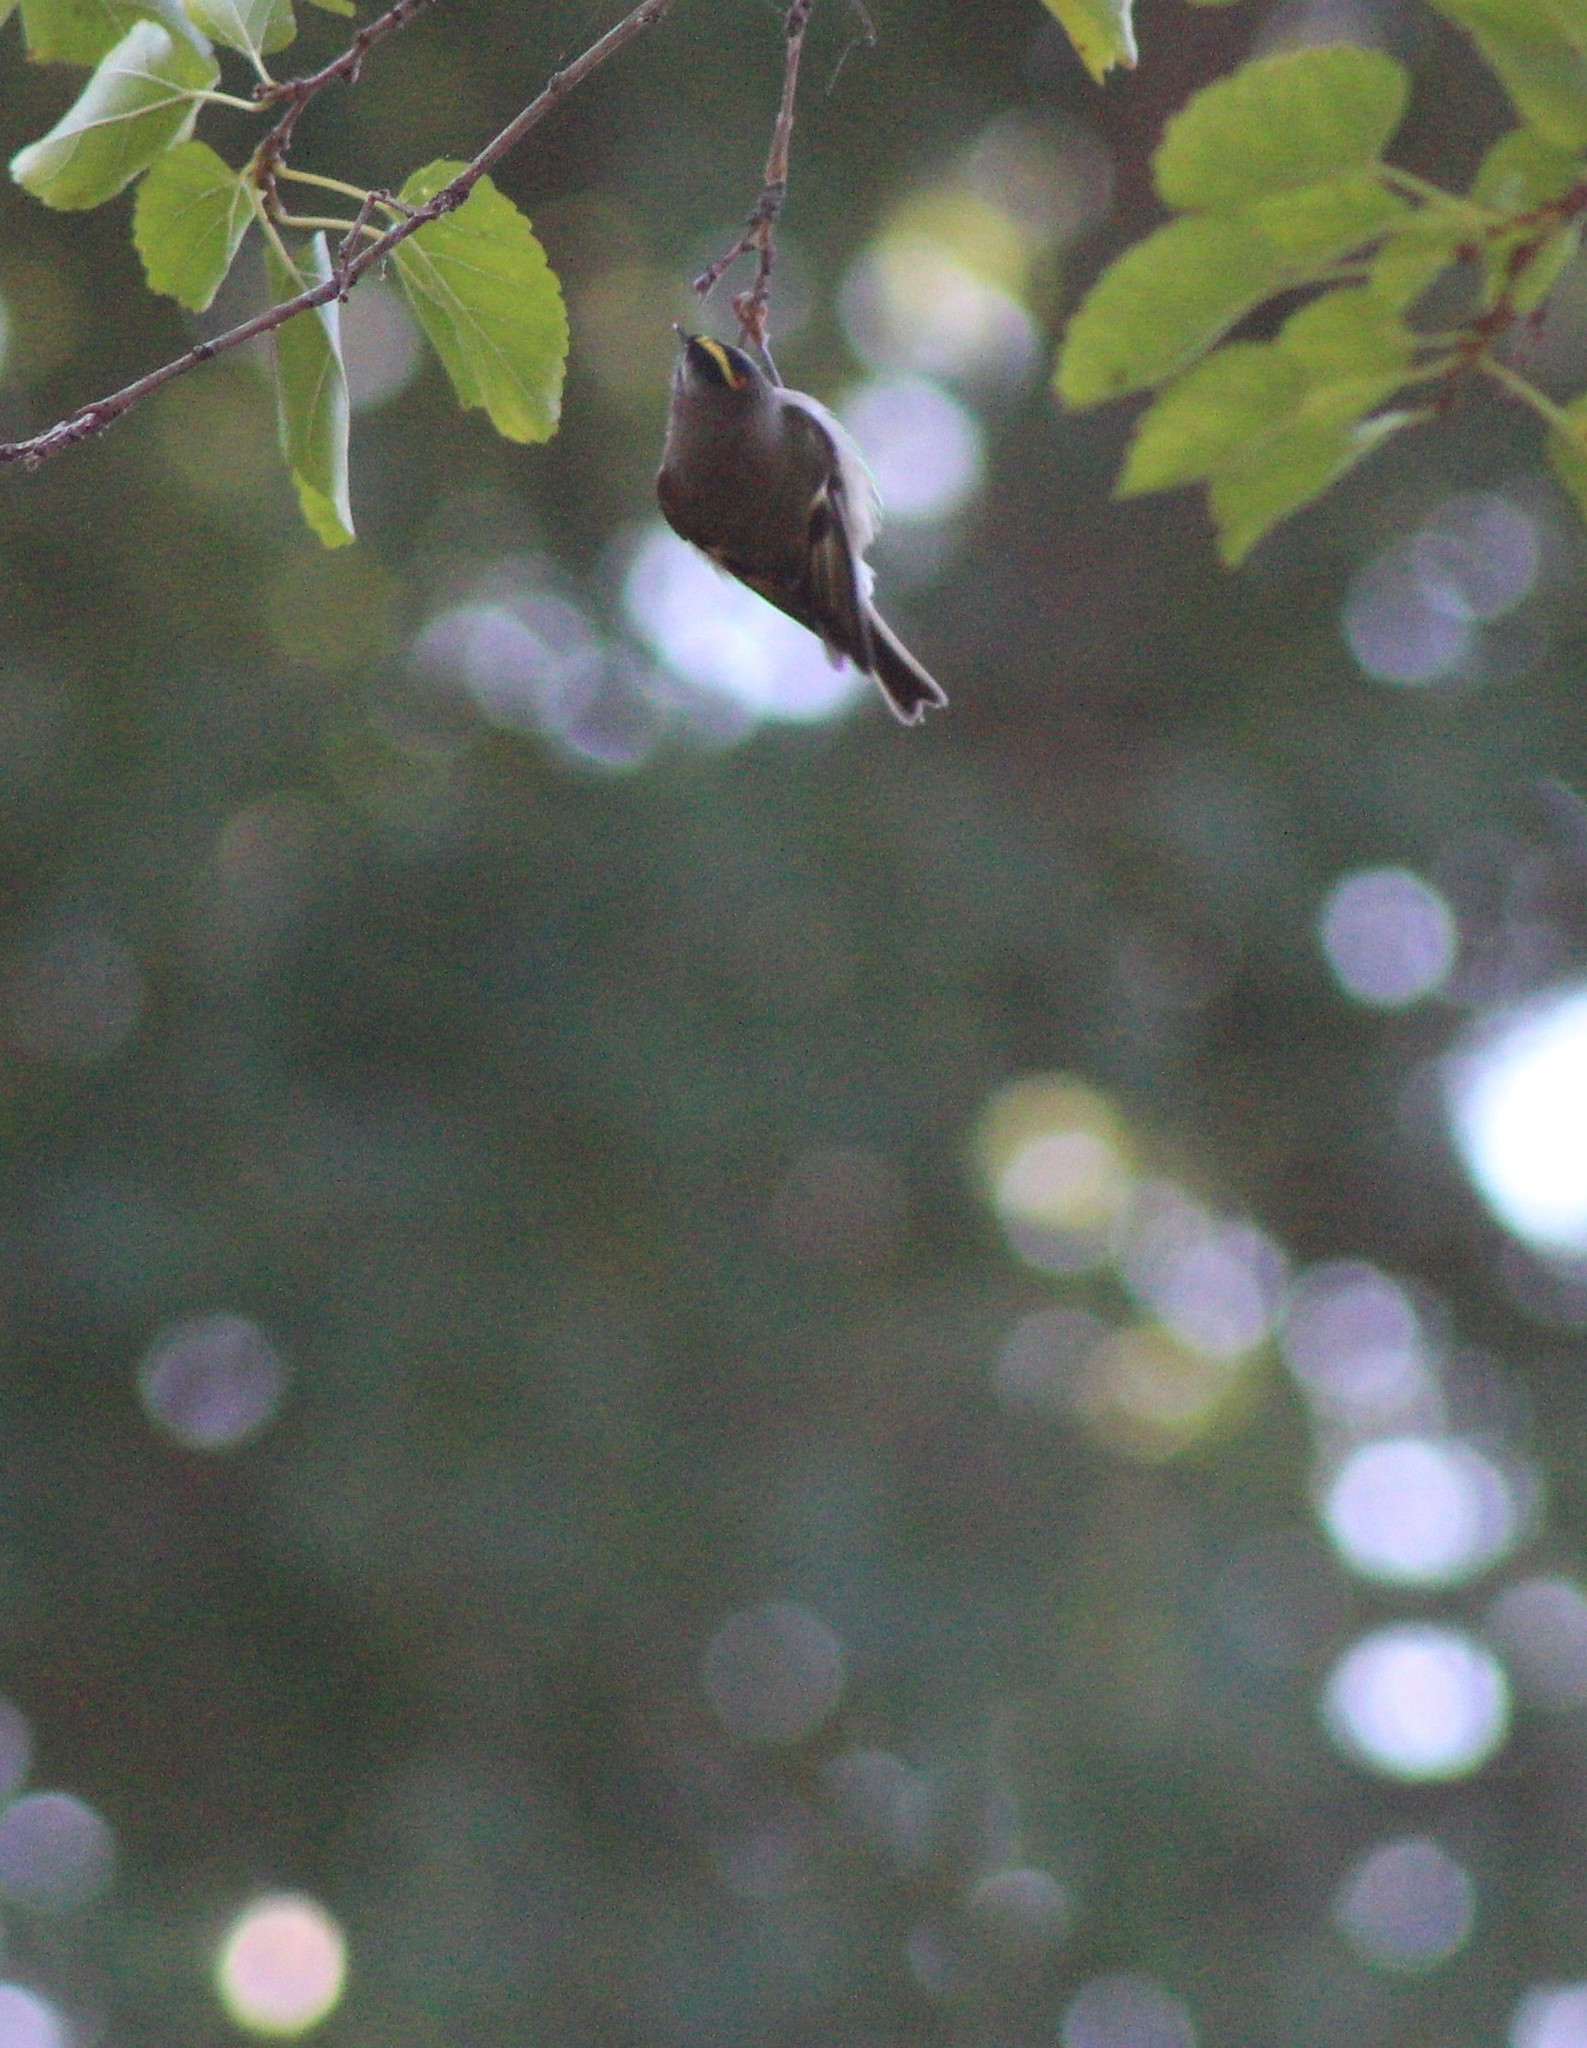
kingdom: Animalia
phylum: Chordata
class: Aves
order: Passeriformes
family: Regulidae
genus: Regulus
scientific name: Regulus satrapa
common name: Golden-crowned kinglet
